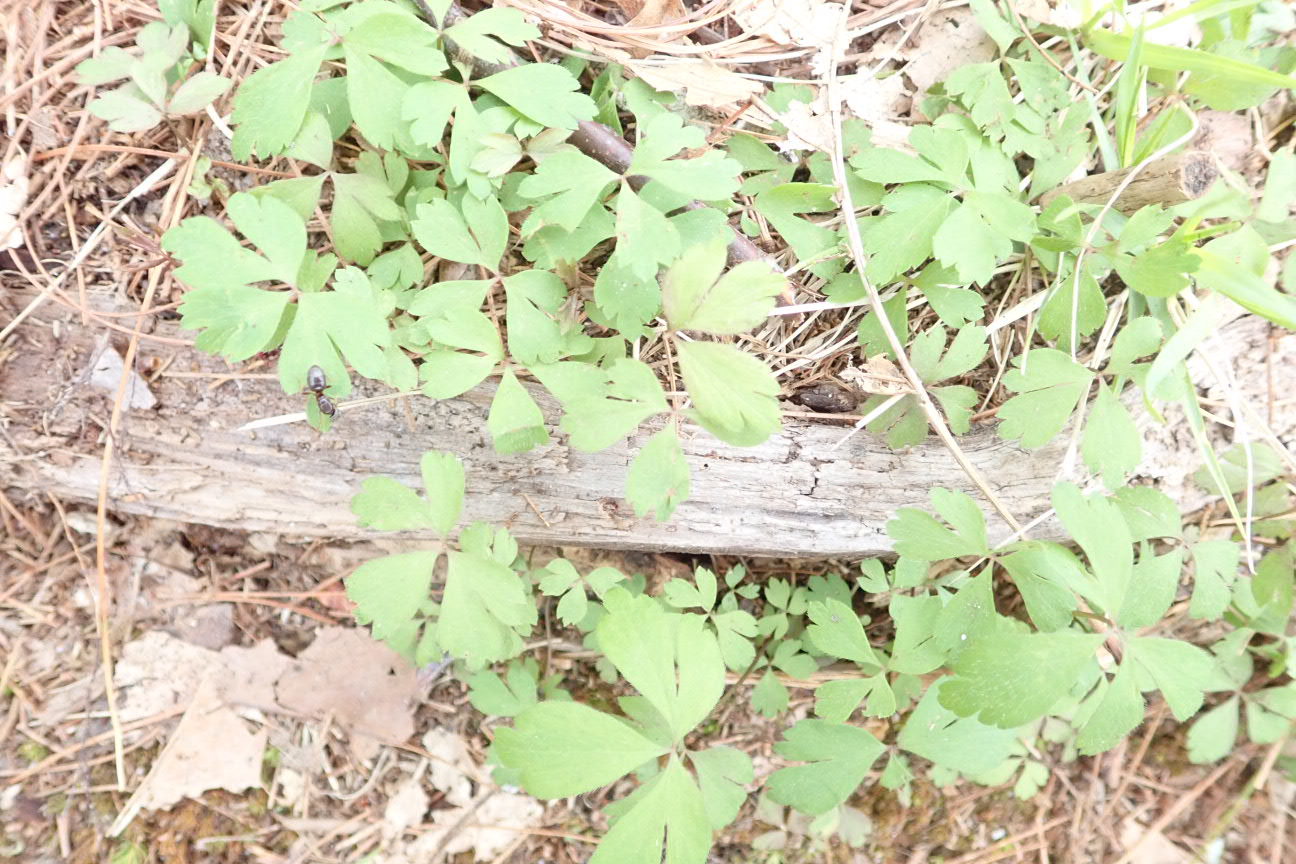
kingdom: Plantae
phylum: Tracheophyta
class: Magnoliopsida
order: Ranunculales
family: Ranunculaceae
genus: Anemone
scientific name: Anemone quinquefolia
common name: Wood anemone
